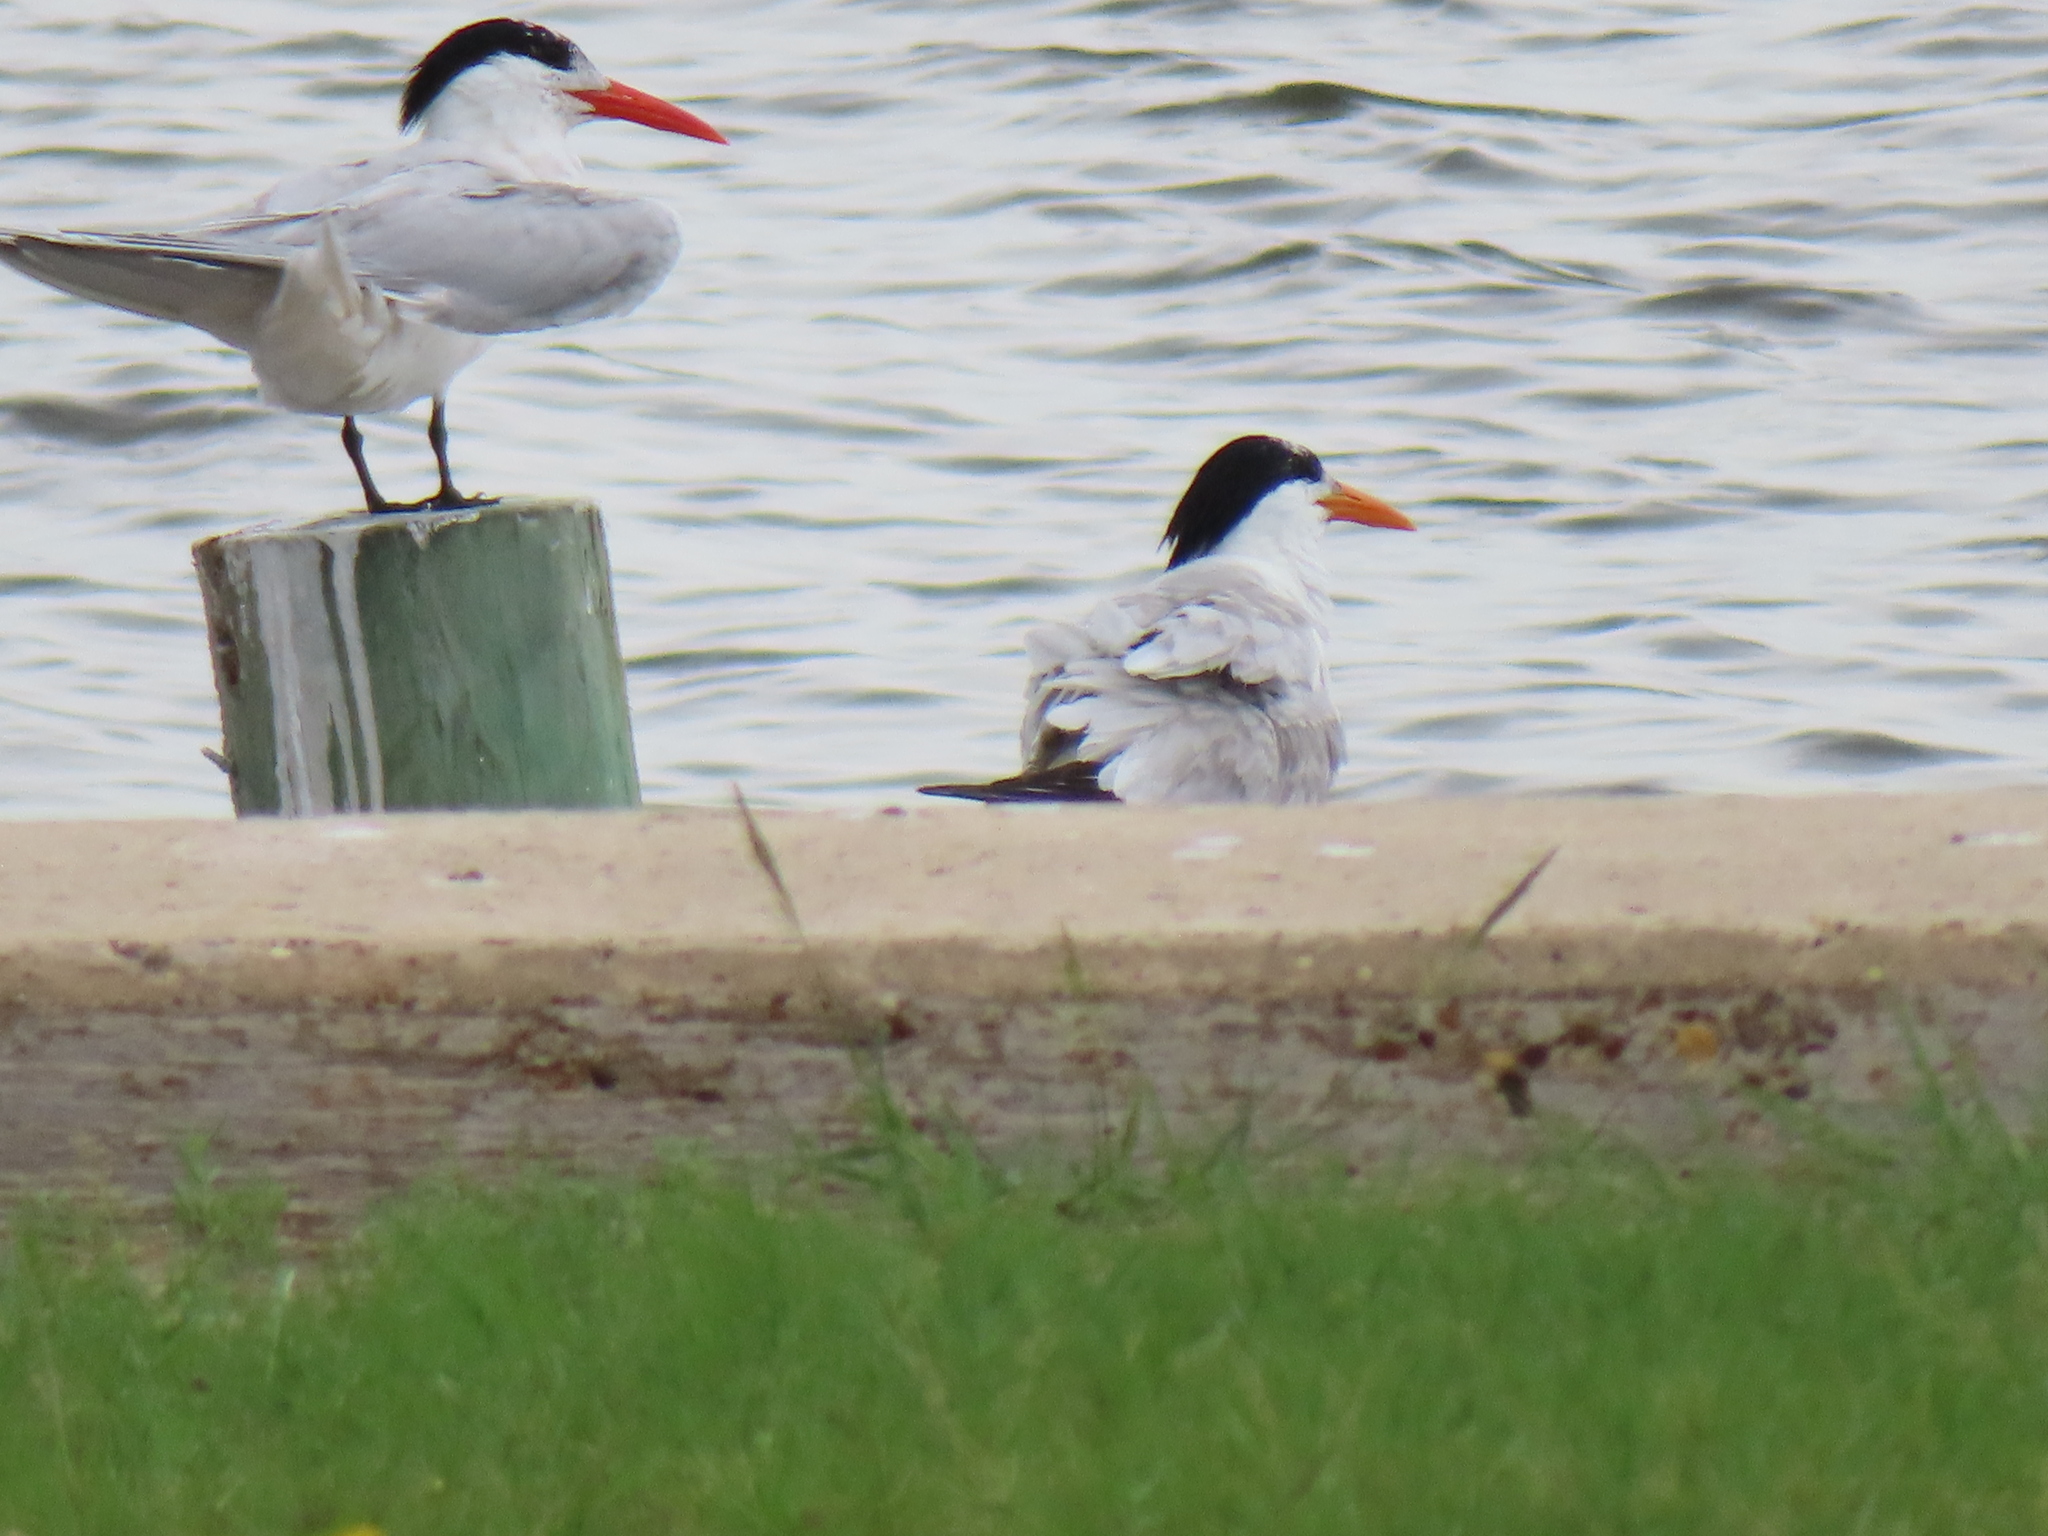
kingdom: Animalia
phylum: Chordata
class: Aves
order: Charadriiformes
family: Laridae
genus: Thalasseus
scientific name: Thalasseus maximus
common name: Royal tern
